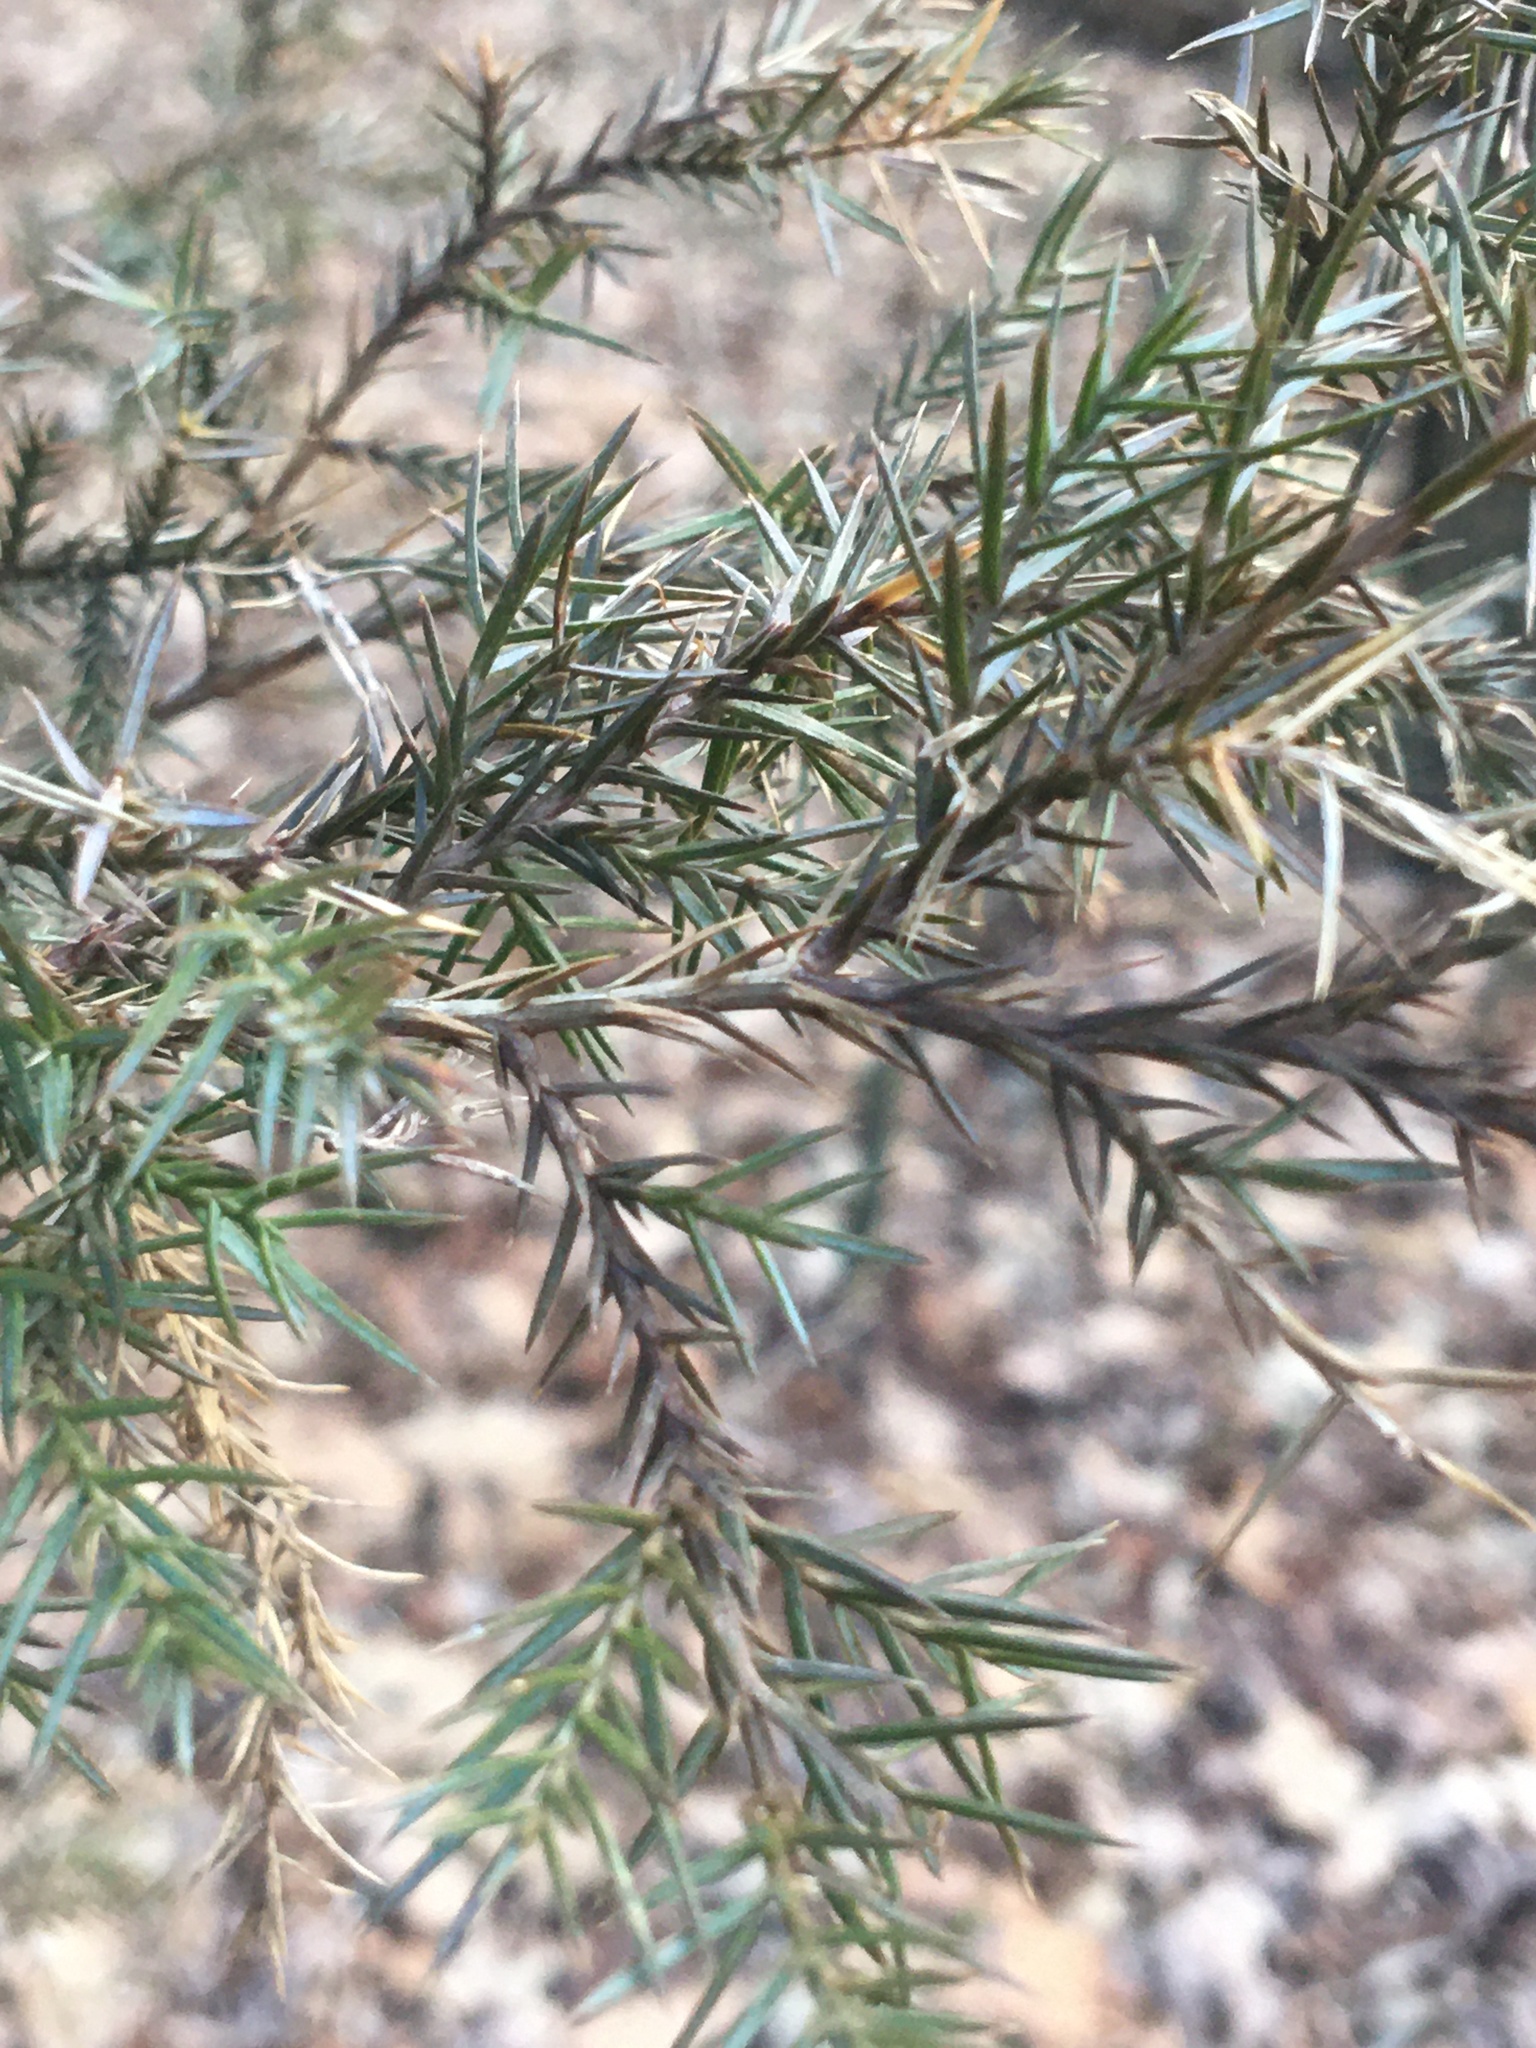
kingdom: Plantae
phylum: Tracheophyta
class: Pinopsida
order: Pinales
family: Cupressaceae
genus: Juniperus
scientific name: Juniperus virginiana
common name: Red juniper
